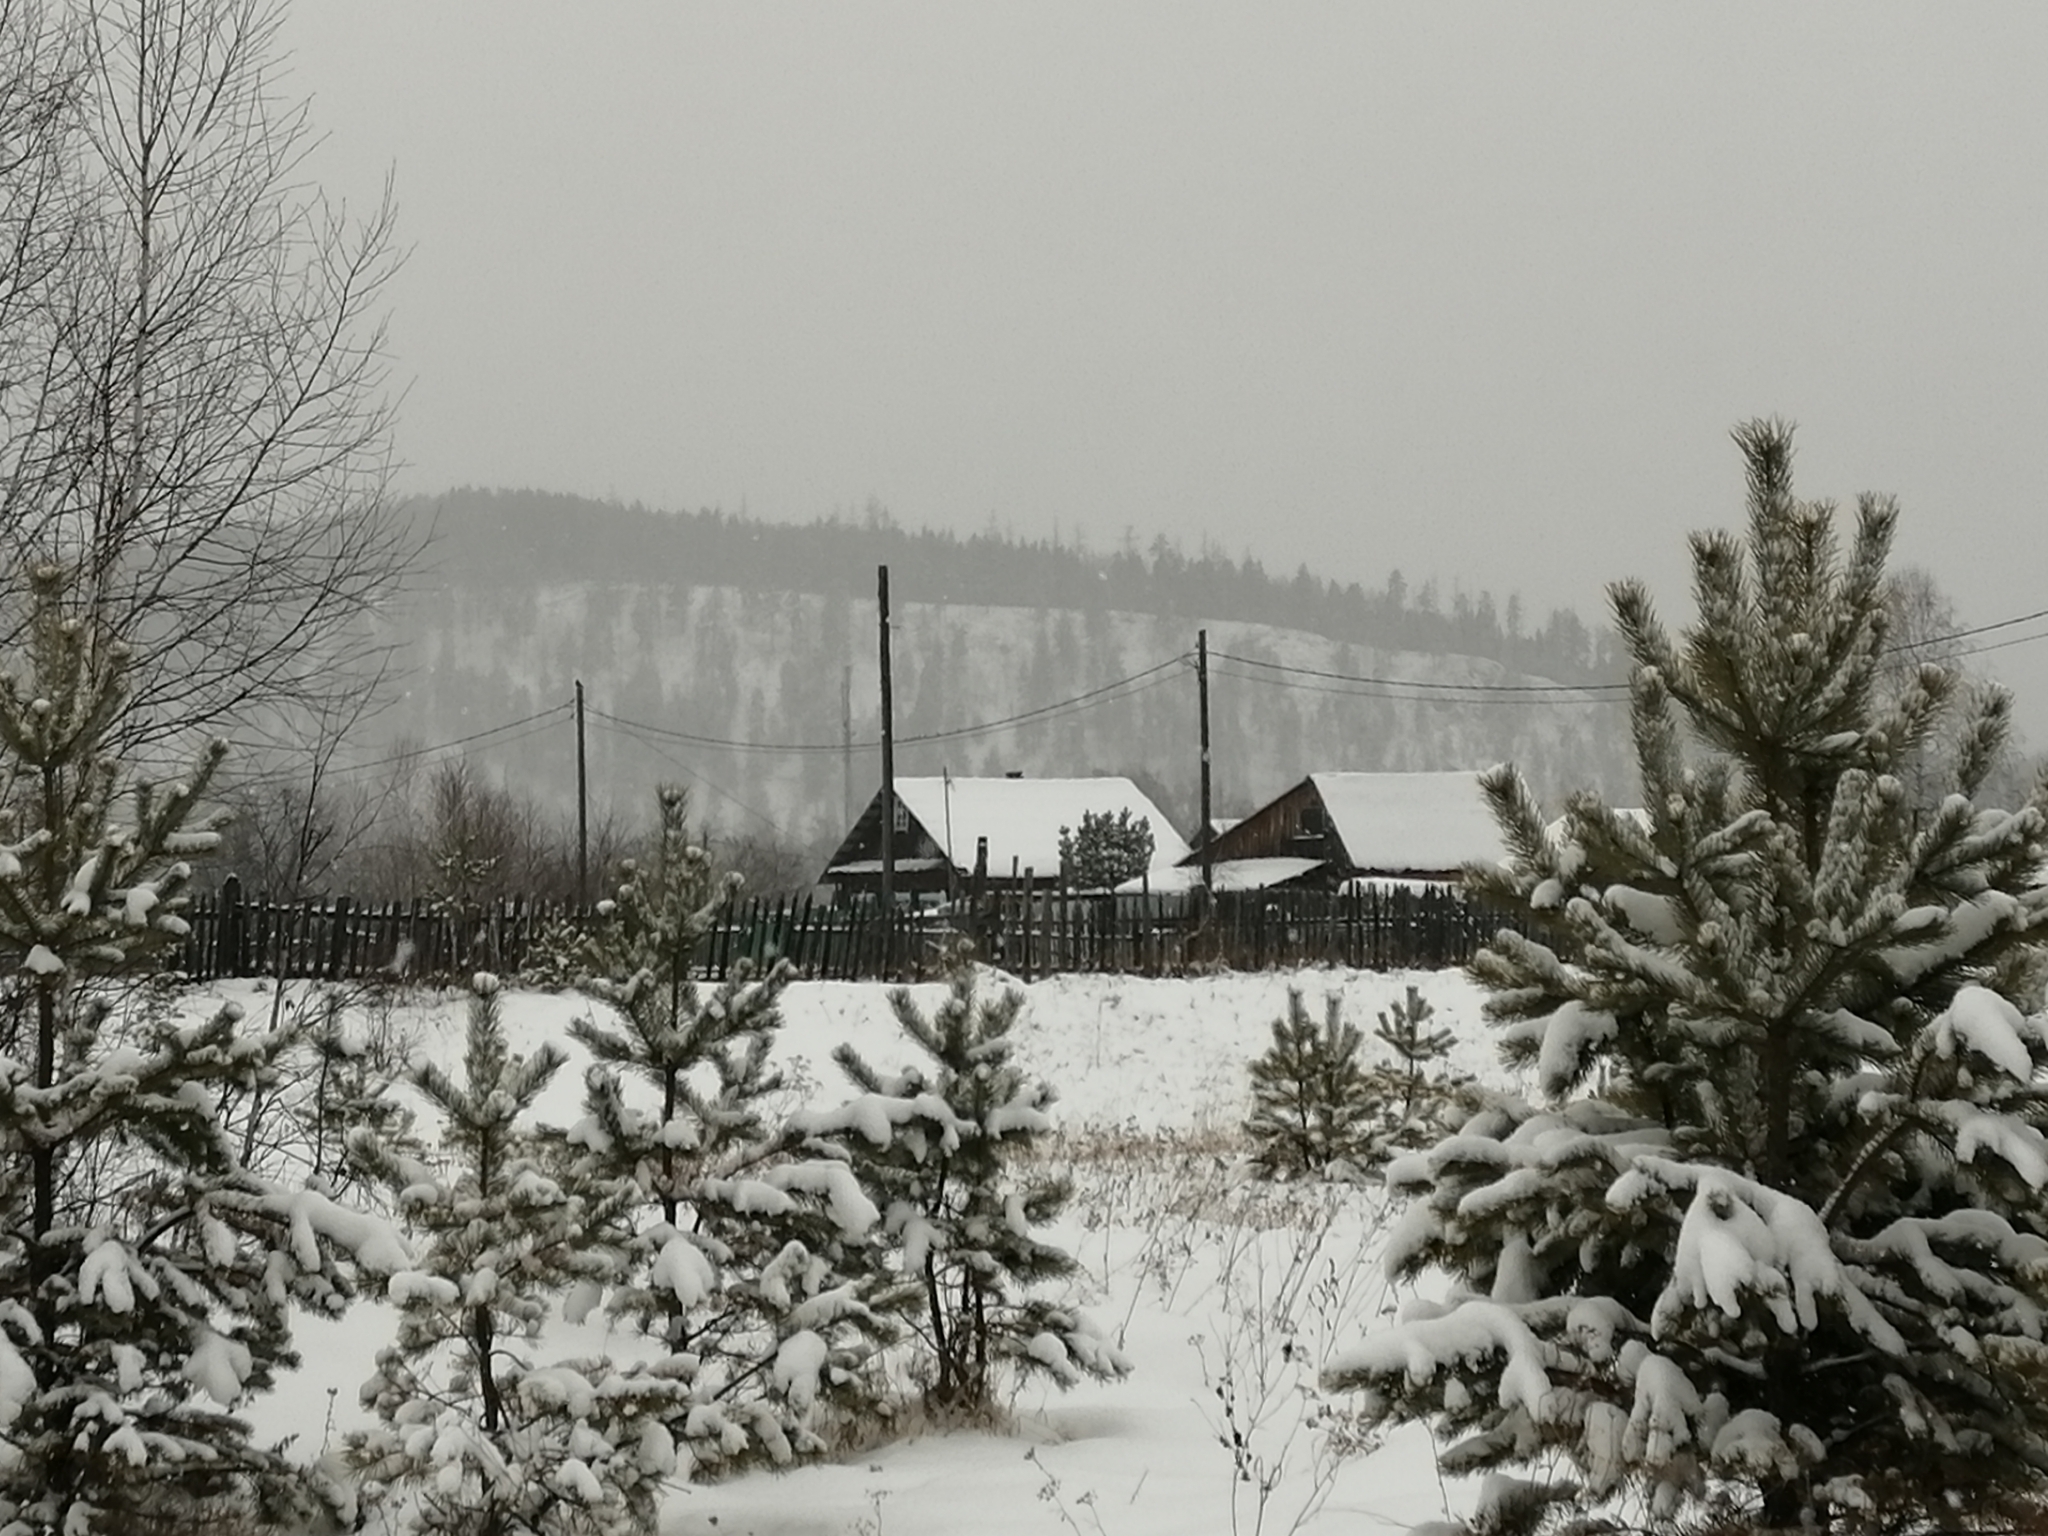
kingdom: Plantae
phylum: Tracheophyta
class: Pinopsida
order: Pinales
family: Pinaceae
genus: Pinus
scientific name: Pinus sylvestris
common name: Scots pine
